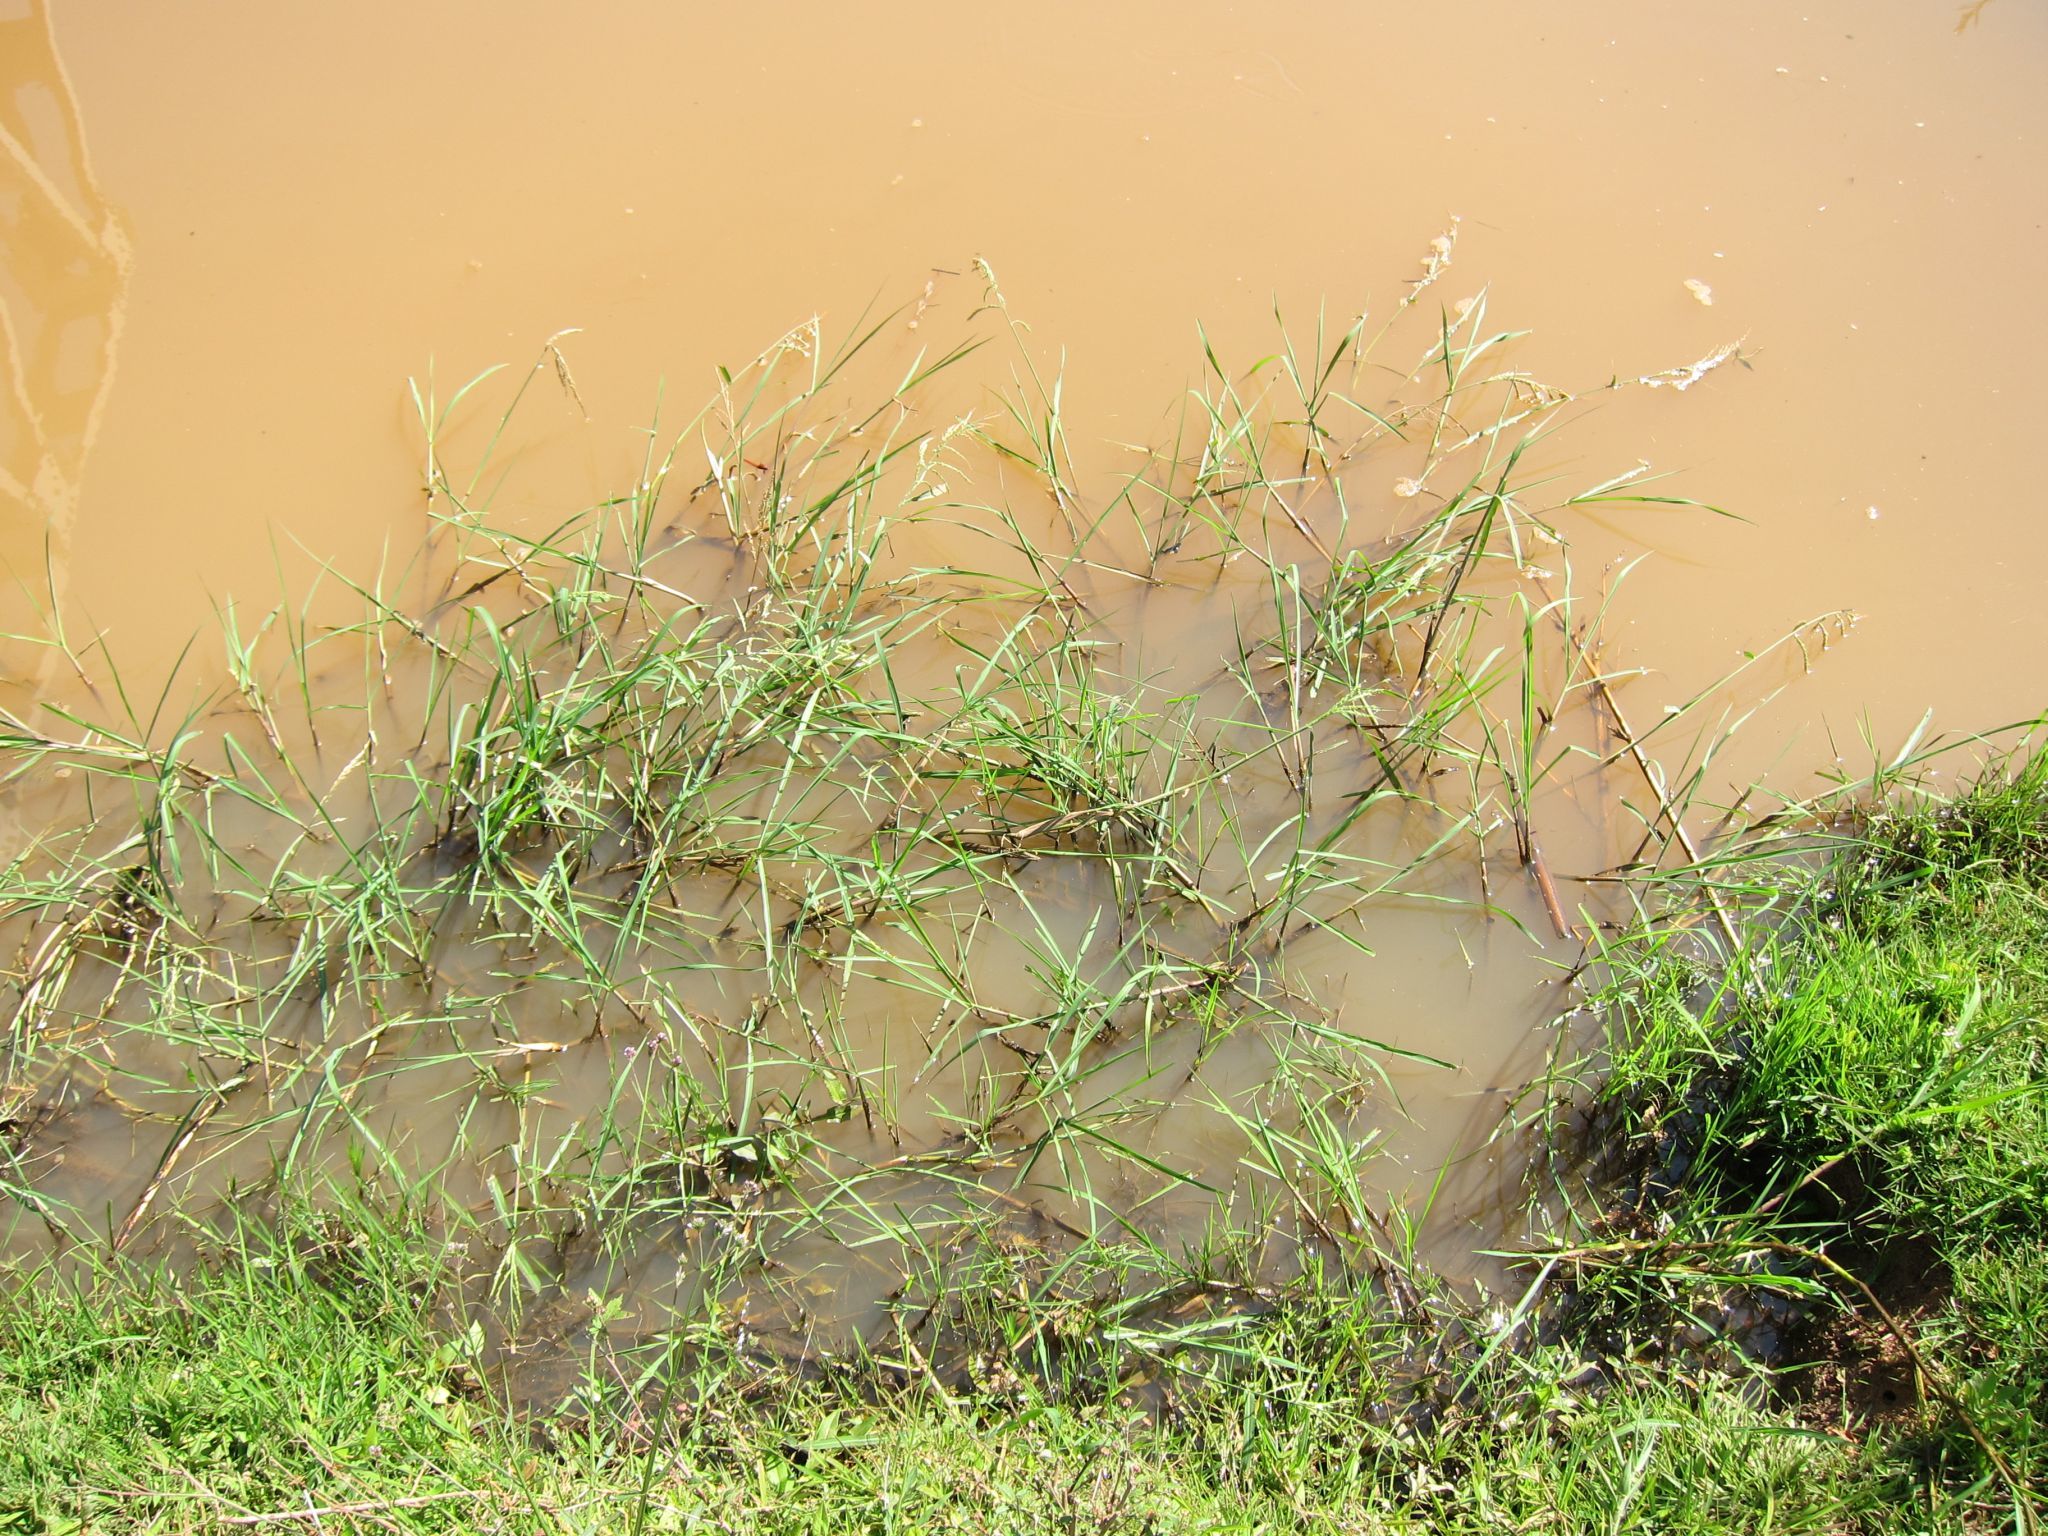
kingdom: Plantae
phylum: Tracheophyta
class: Liliopsida
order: Poales
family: Poaceae
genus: Echinochloa
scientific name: Echinochloa stagnina
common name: Burgu grass
